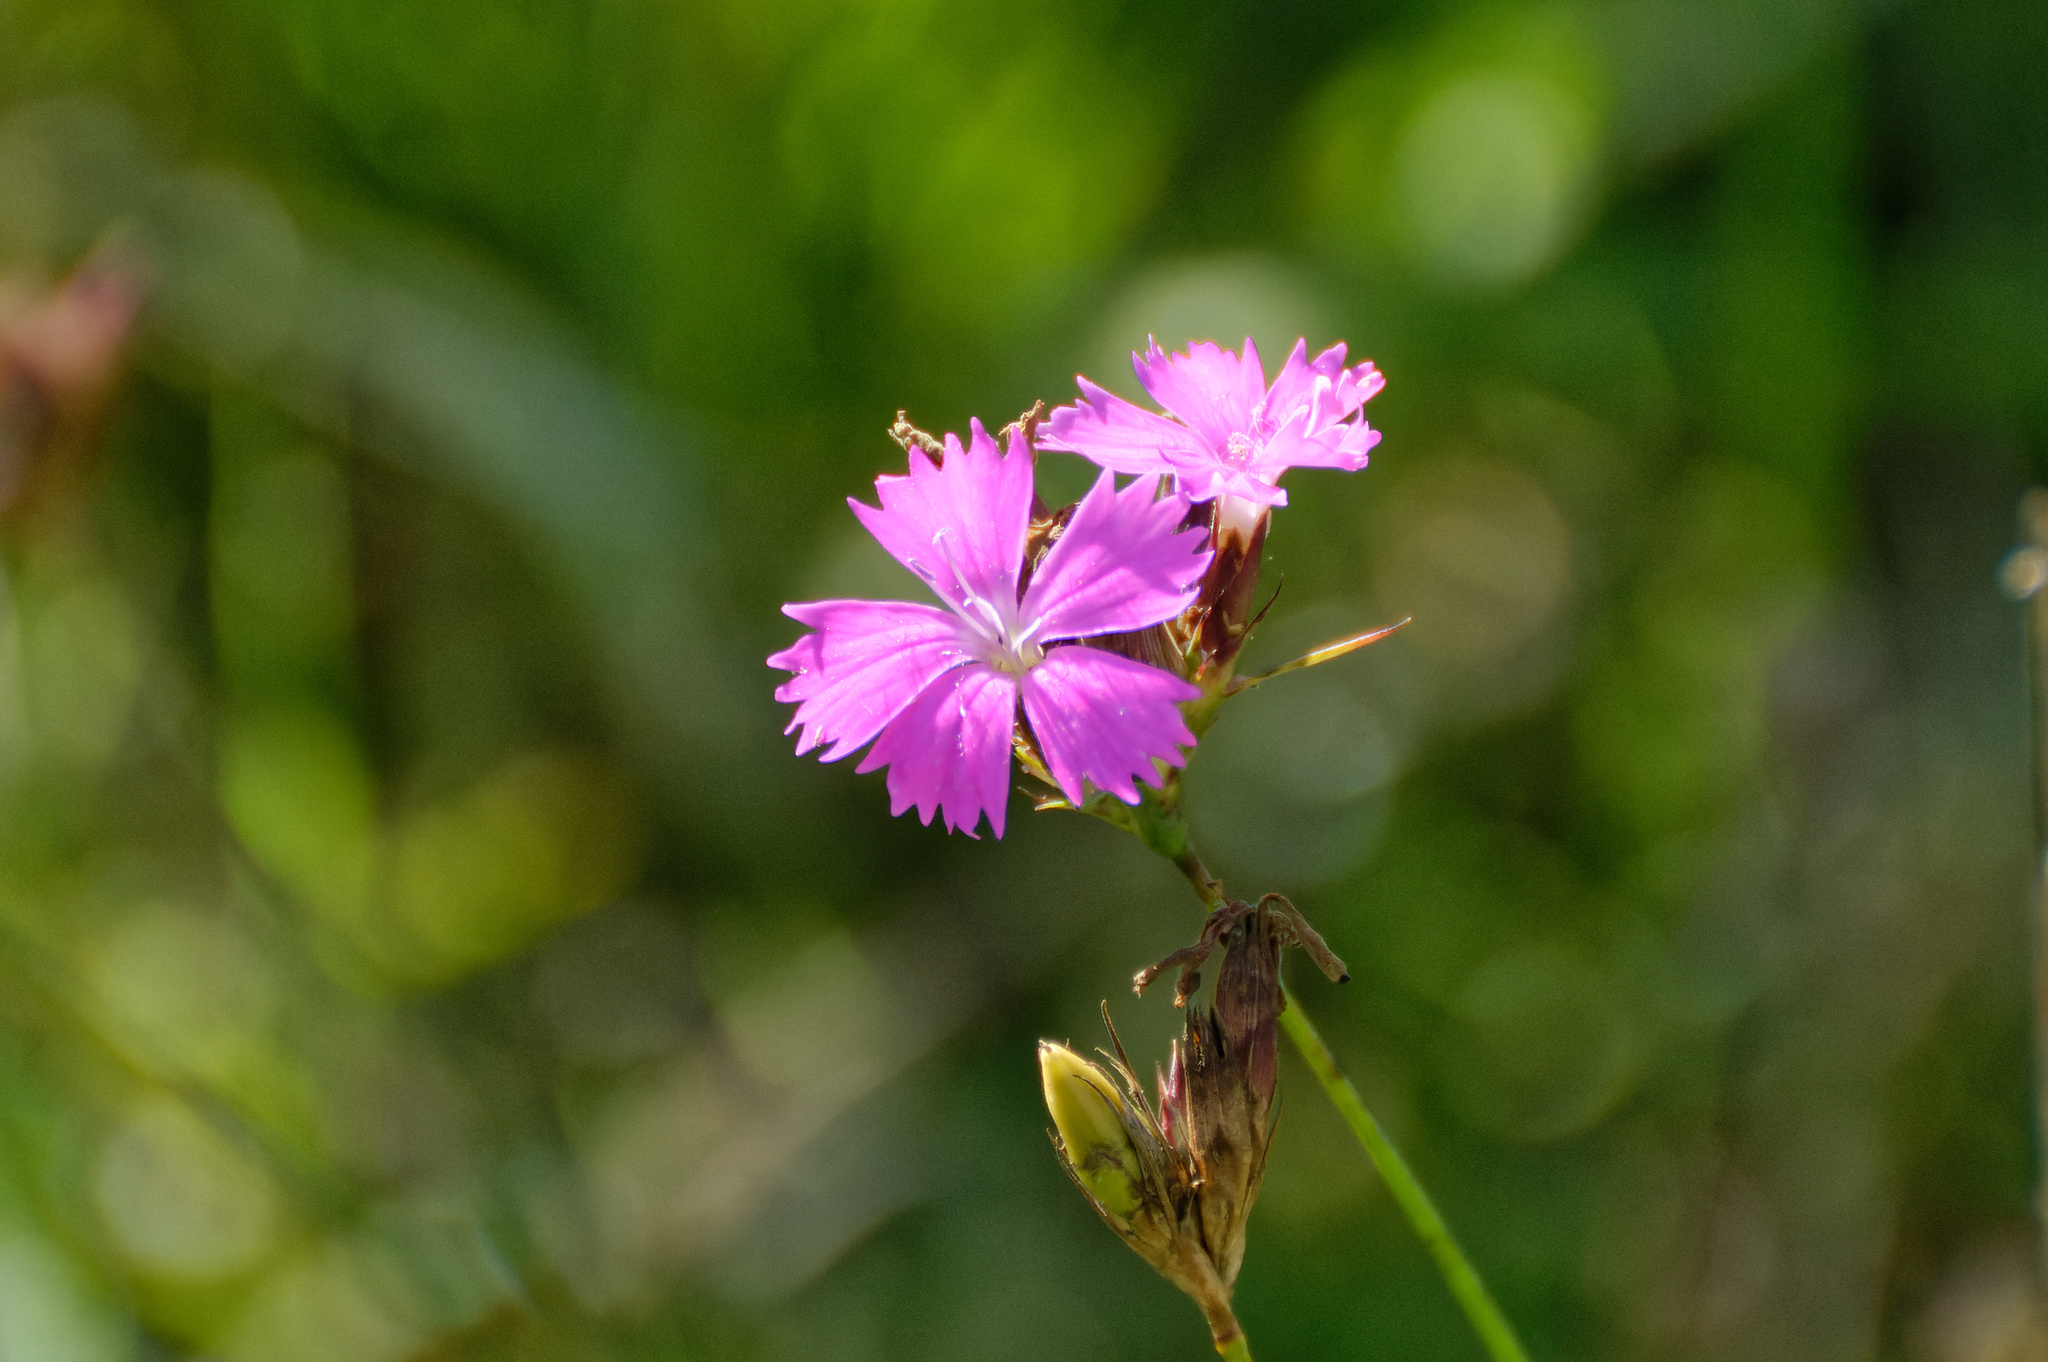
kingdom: Plantae
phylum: Tracheophyta
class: Magnoliopsida
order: Caryophyllales
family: Caryophyllaceae
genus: Dianthus
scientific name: Dianthus carthusianorum
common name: Carthusian pink
